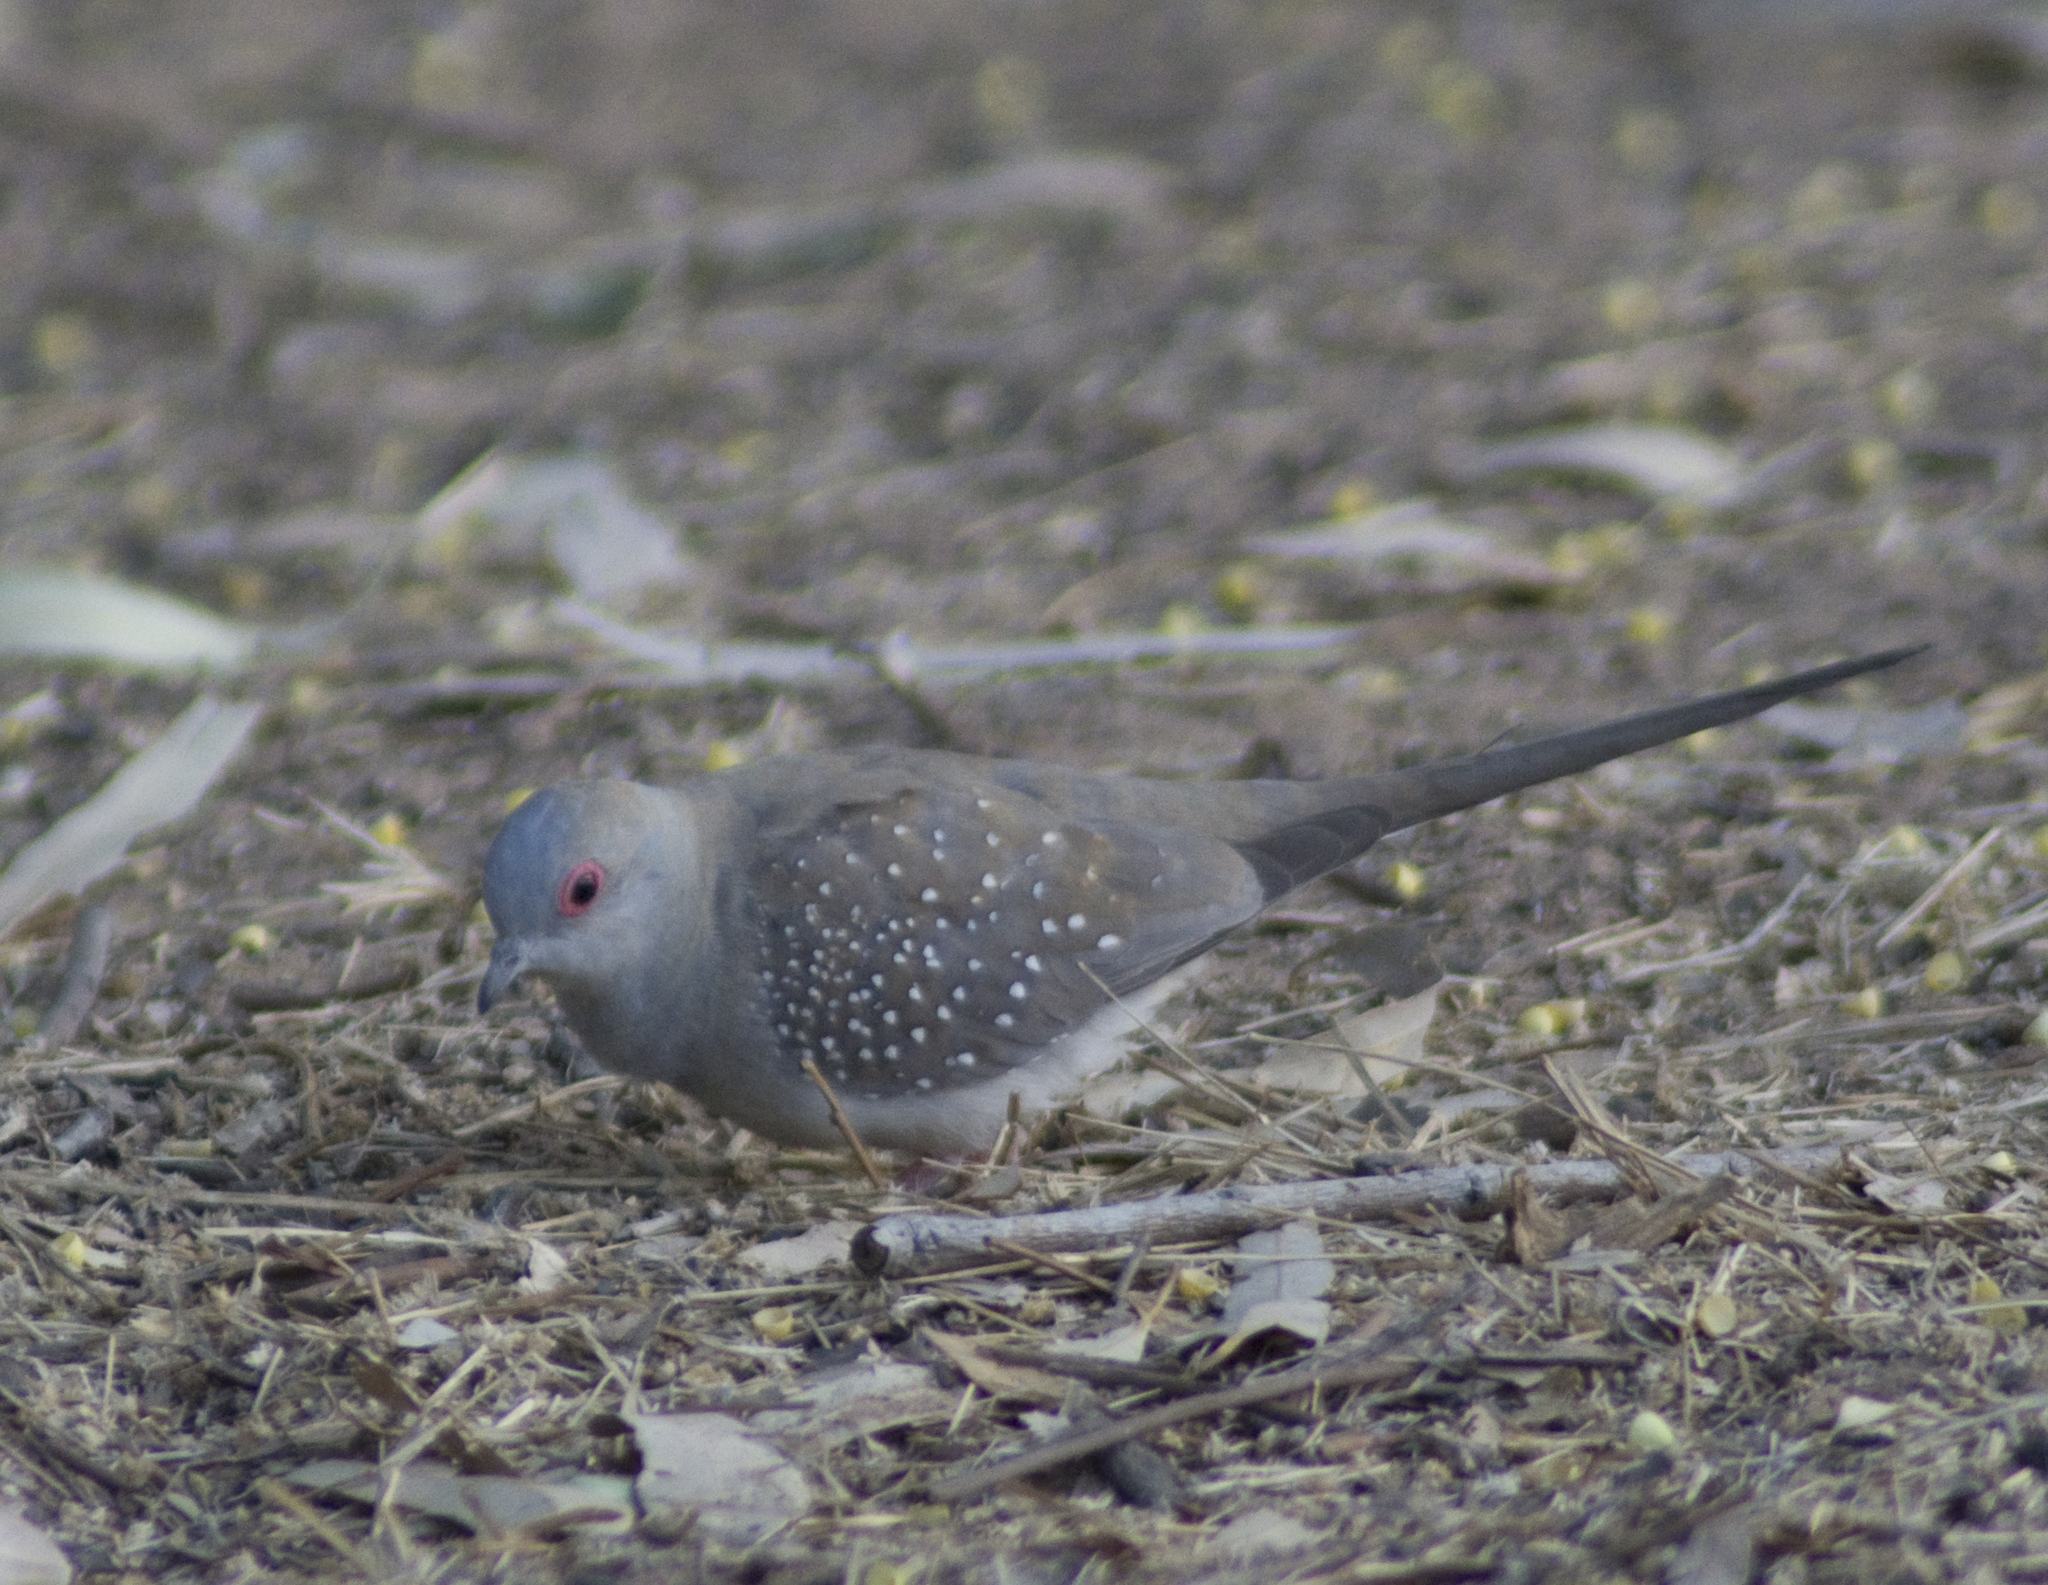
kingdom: Animalia
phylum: Chordata
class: Aves
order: Columbiformes
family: Columbidae
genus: Geopelia
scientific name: Geopelia cuneata
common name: Diamond dove
